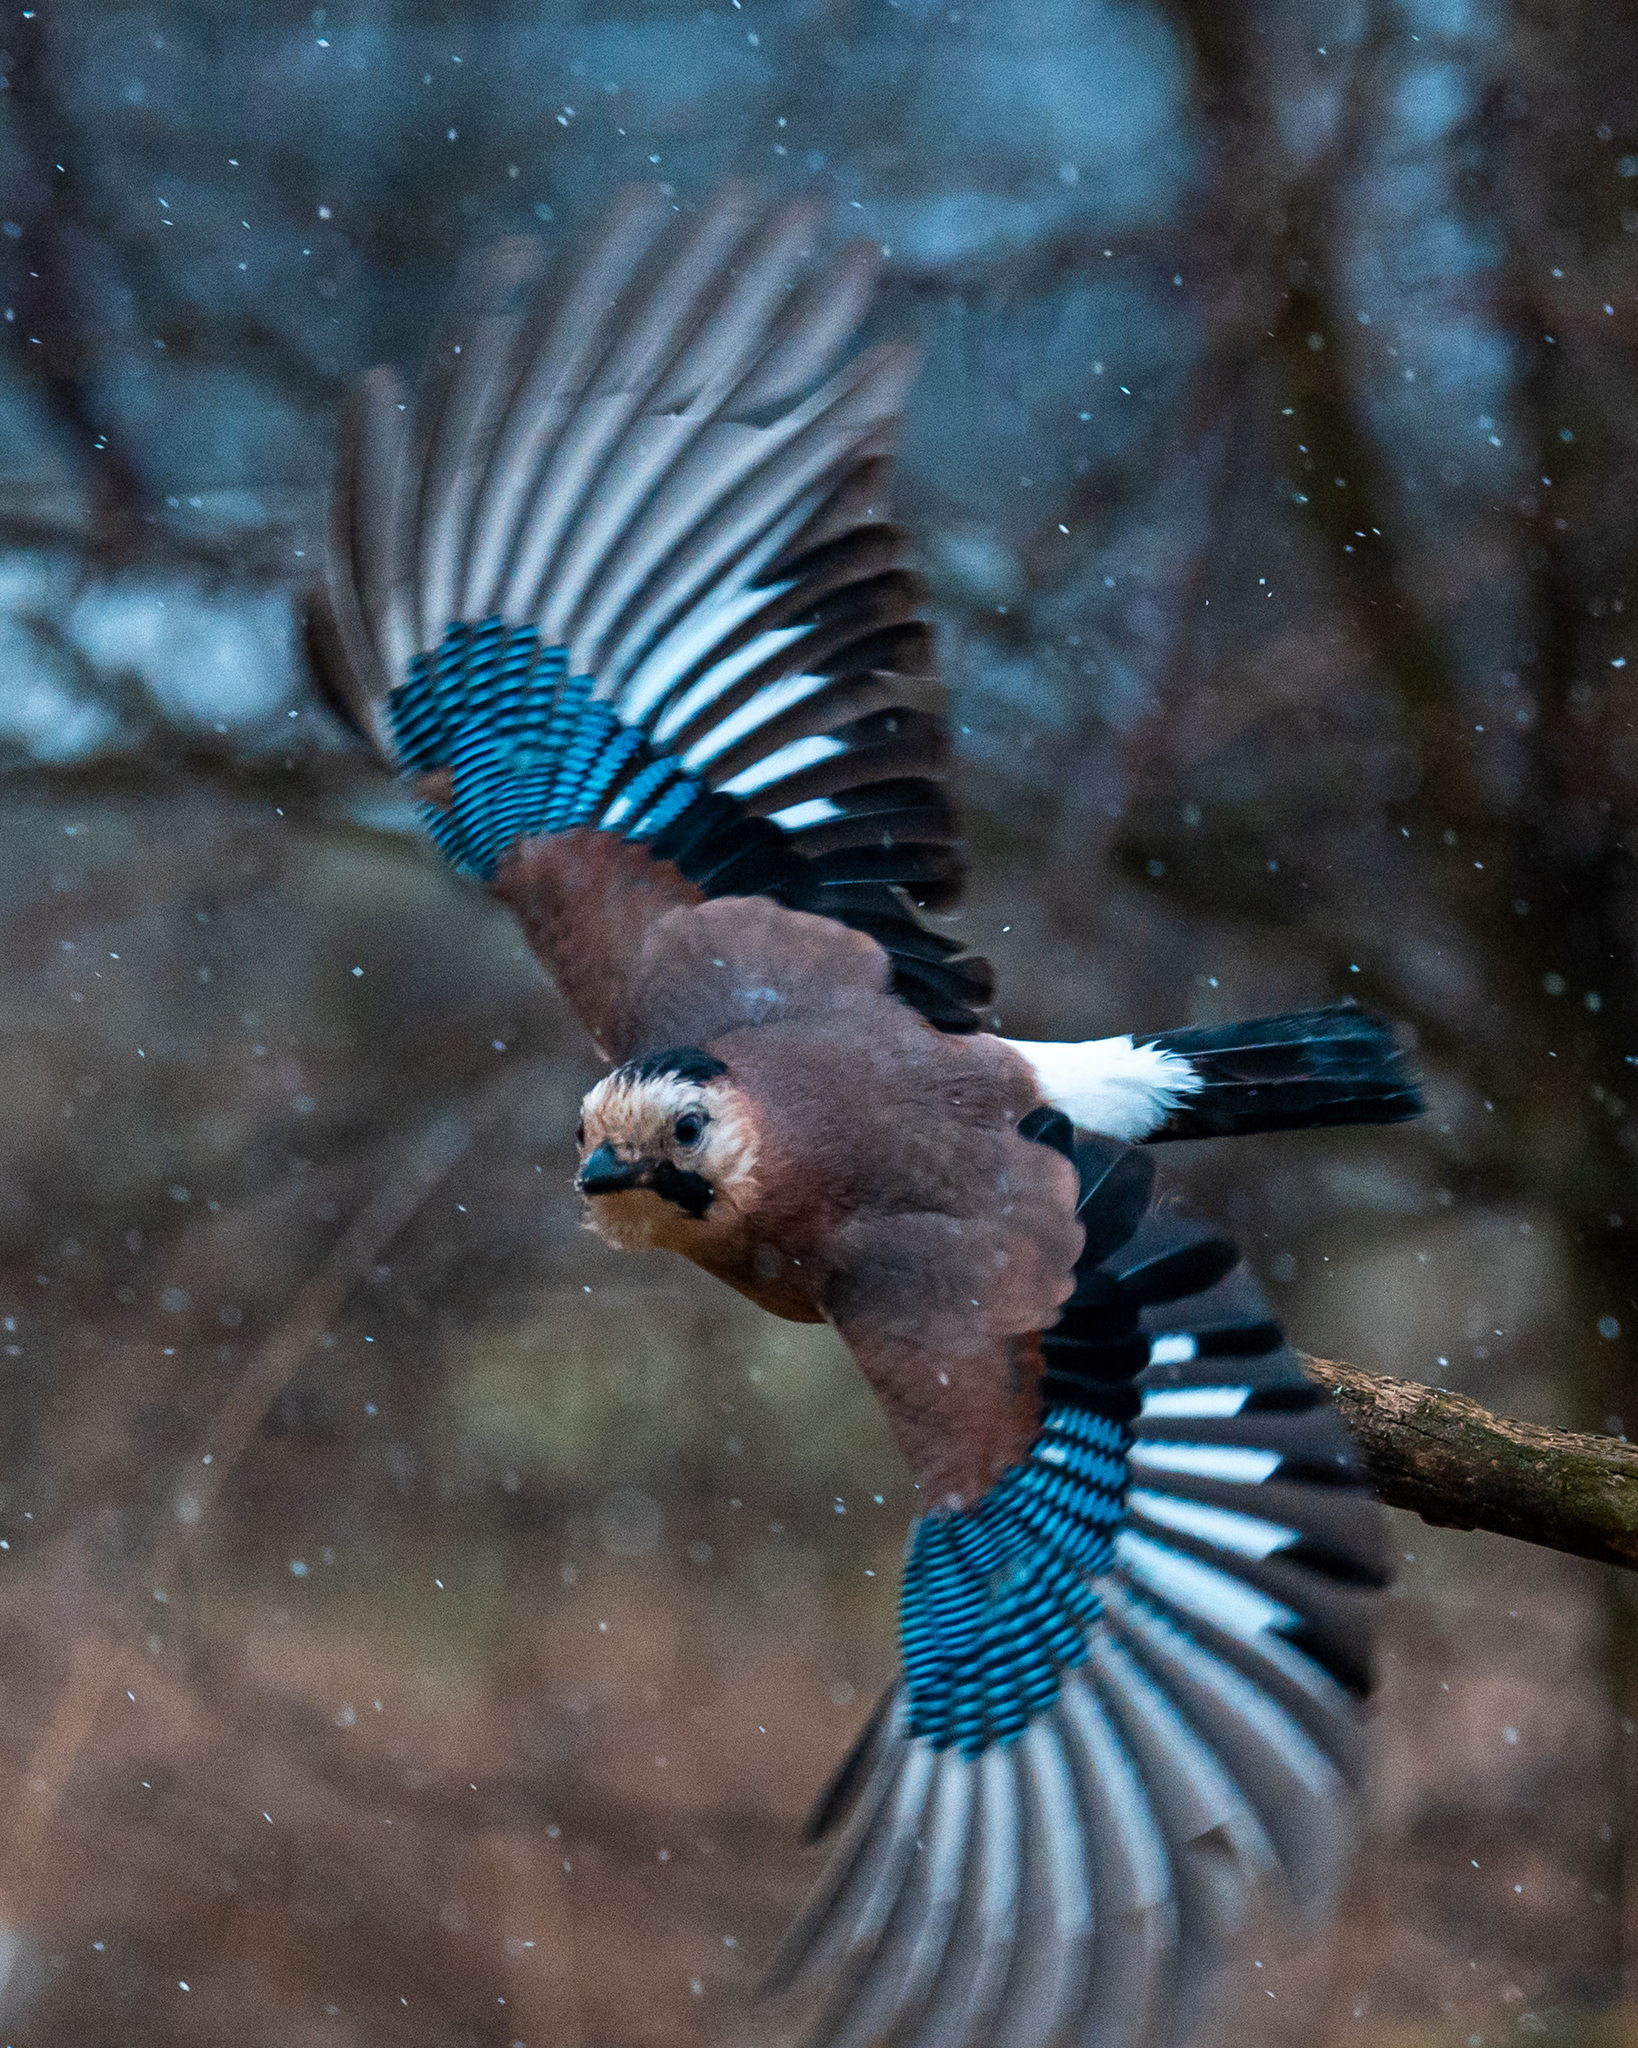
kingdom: Animalia
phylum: Chordata
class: Aves
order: Passeriformes
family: Corvidae
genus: Garrulus
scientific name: Garrulus glandarius
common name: Eurasian jay
